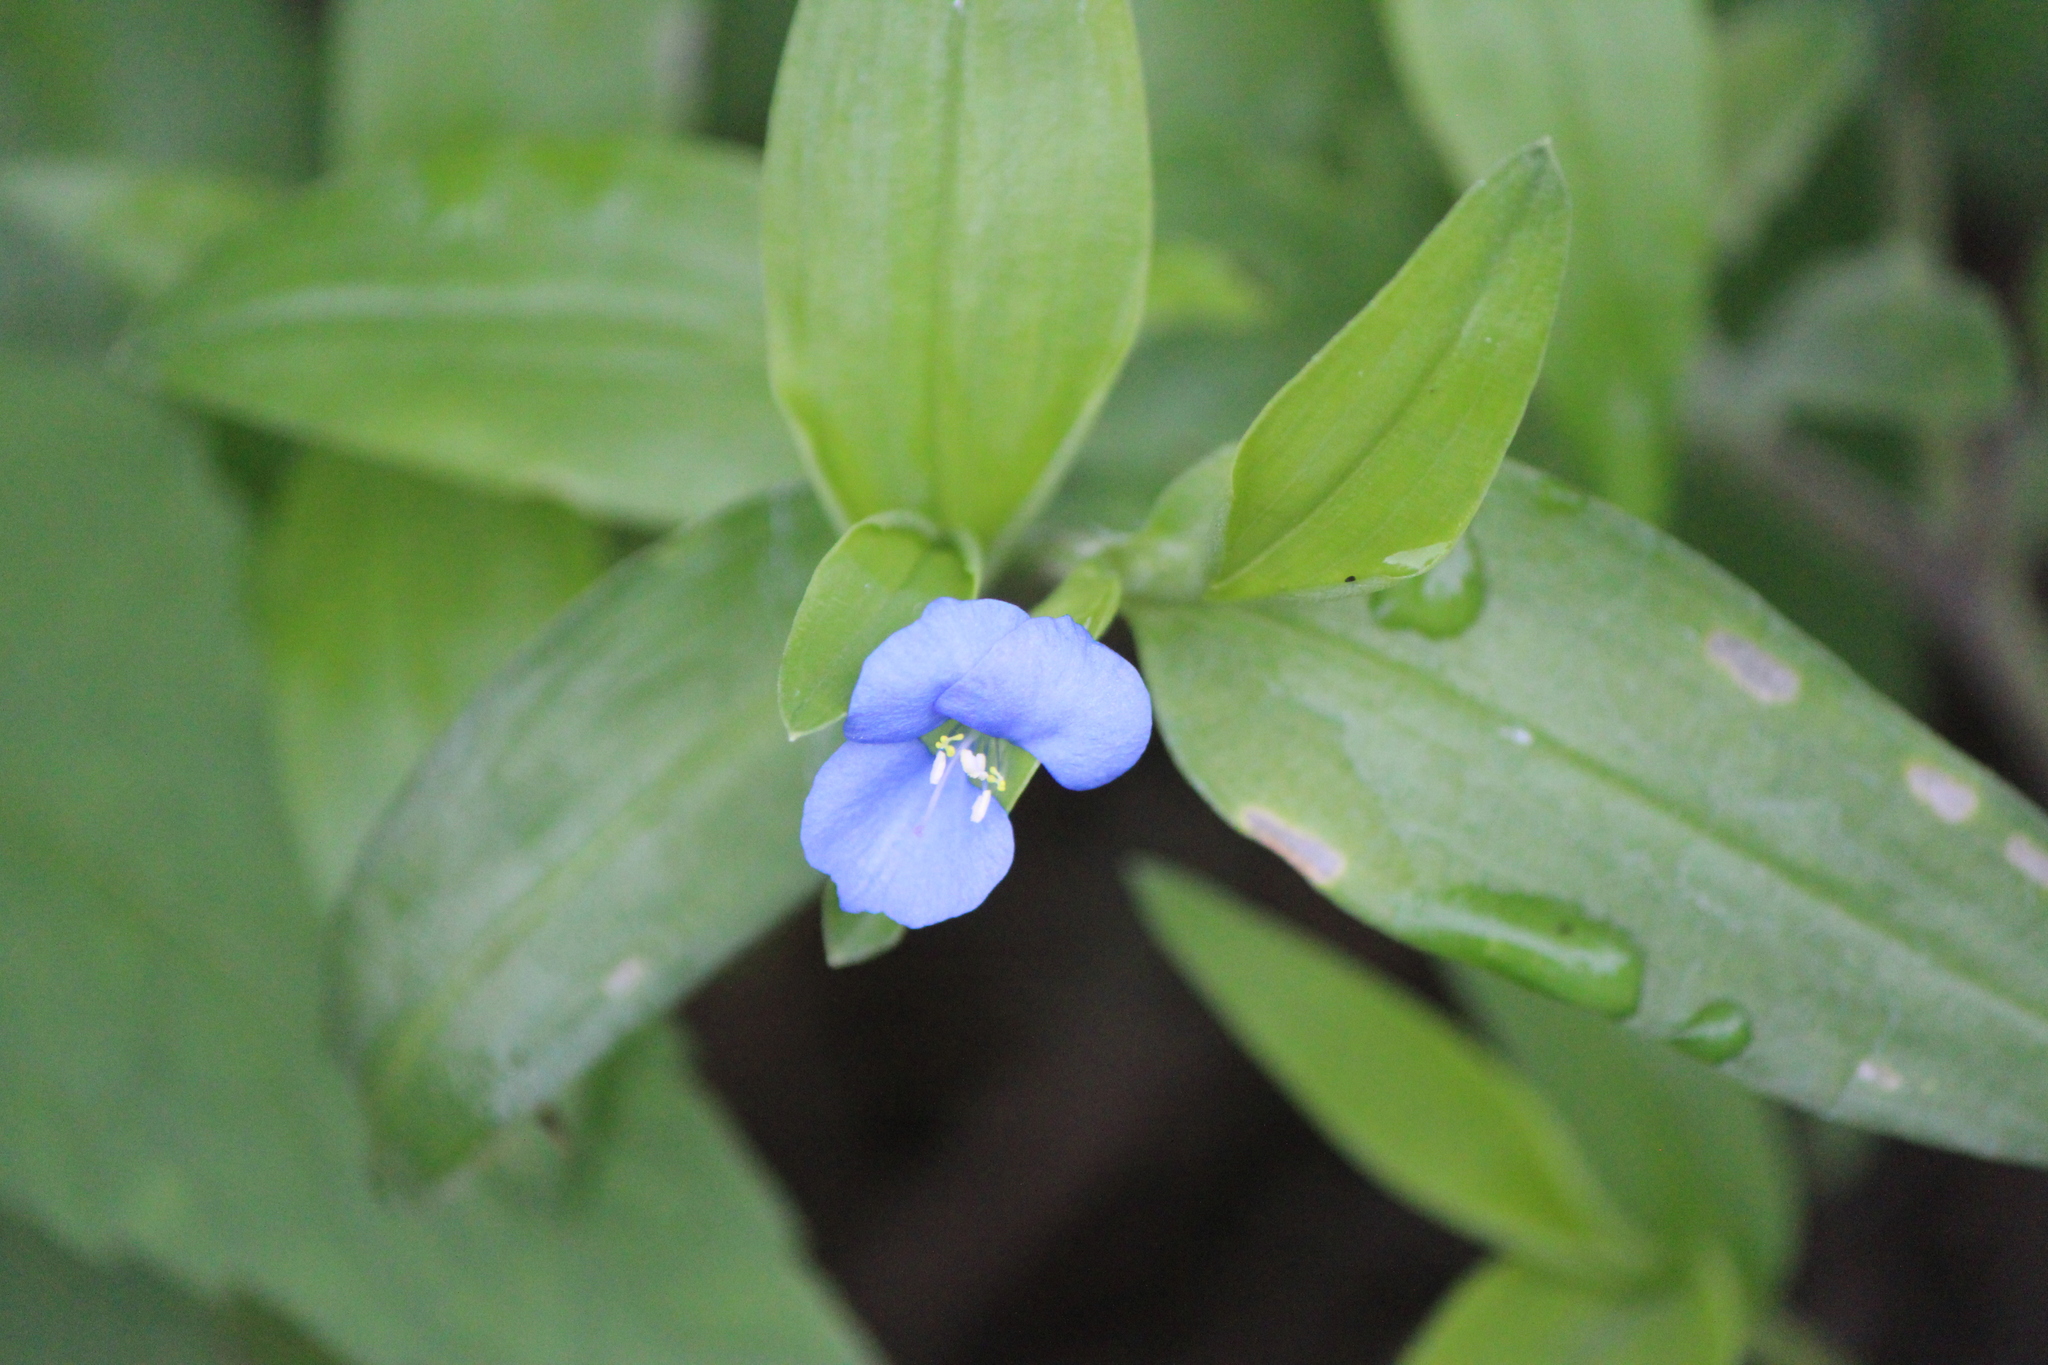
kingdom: Plantae
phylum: Tracheophyta
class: Liliopsida
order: Commelinales
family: Commelinaceae
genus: Commelina
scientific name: Commelina diffusa
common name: Climbing dayflower
